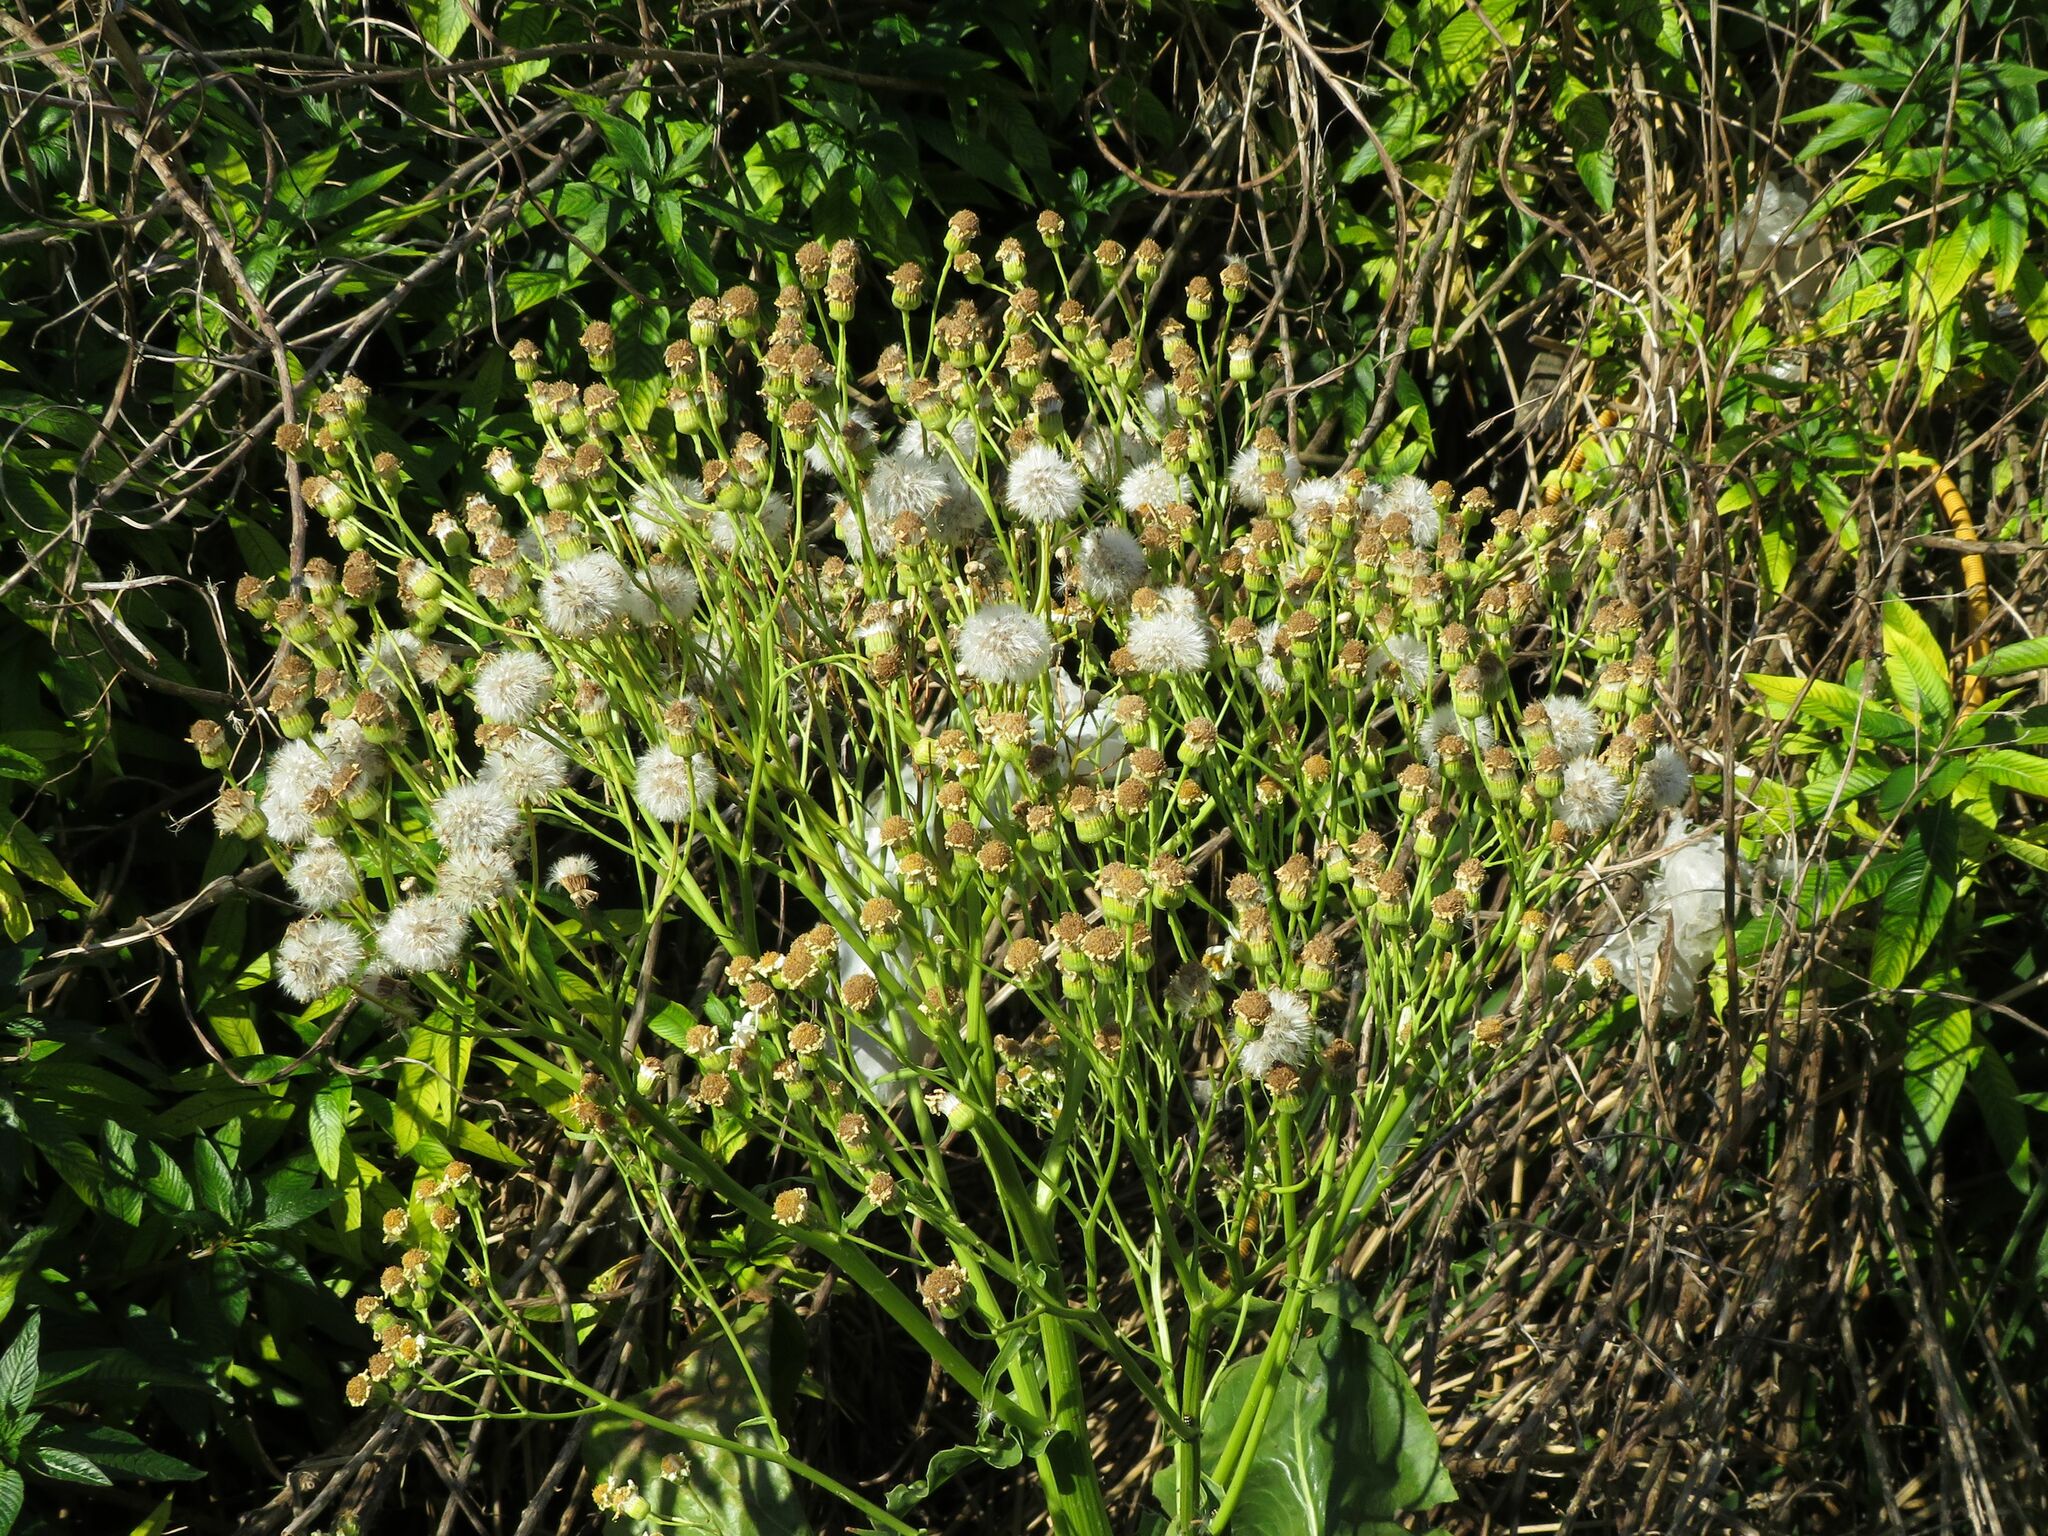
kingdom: Plantae
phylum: Tracheophyta
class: Magnoliopsida
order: Asterales
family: Asteraceae
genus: Senecio
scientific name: Senecio bonariensis
